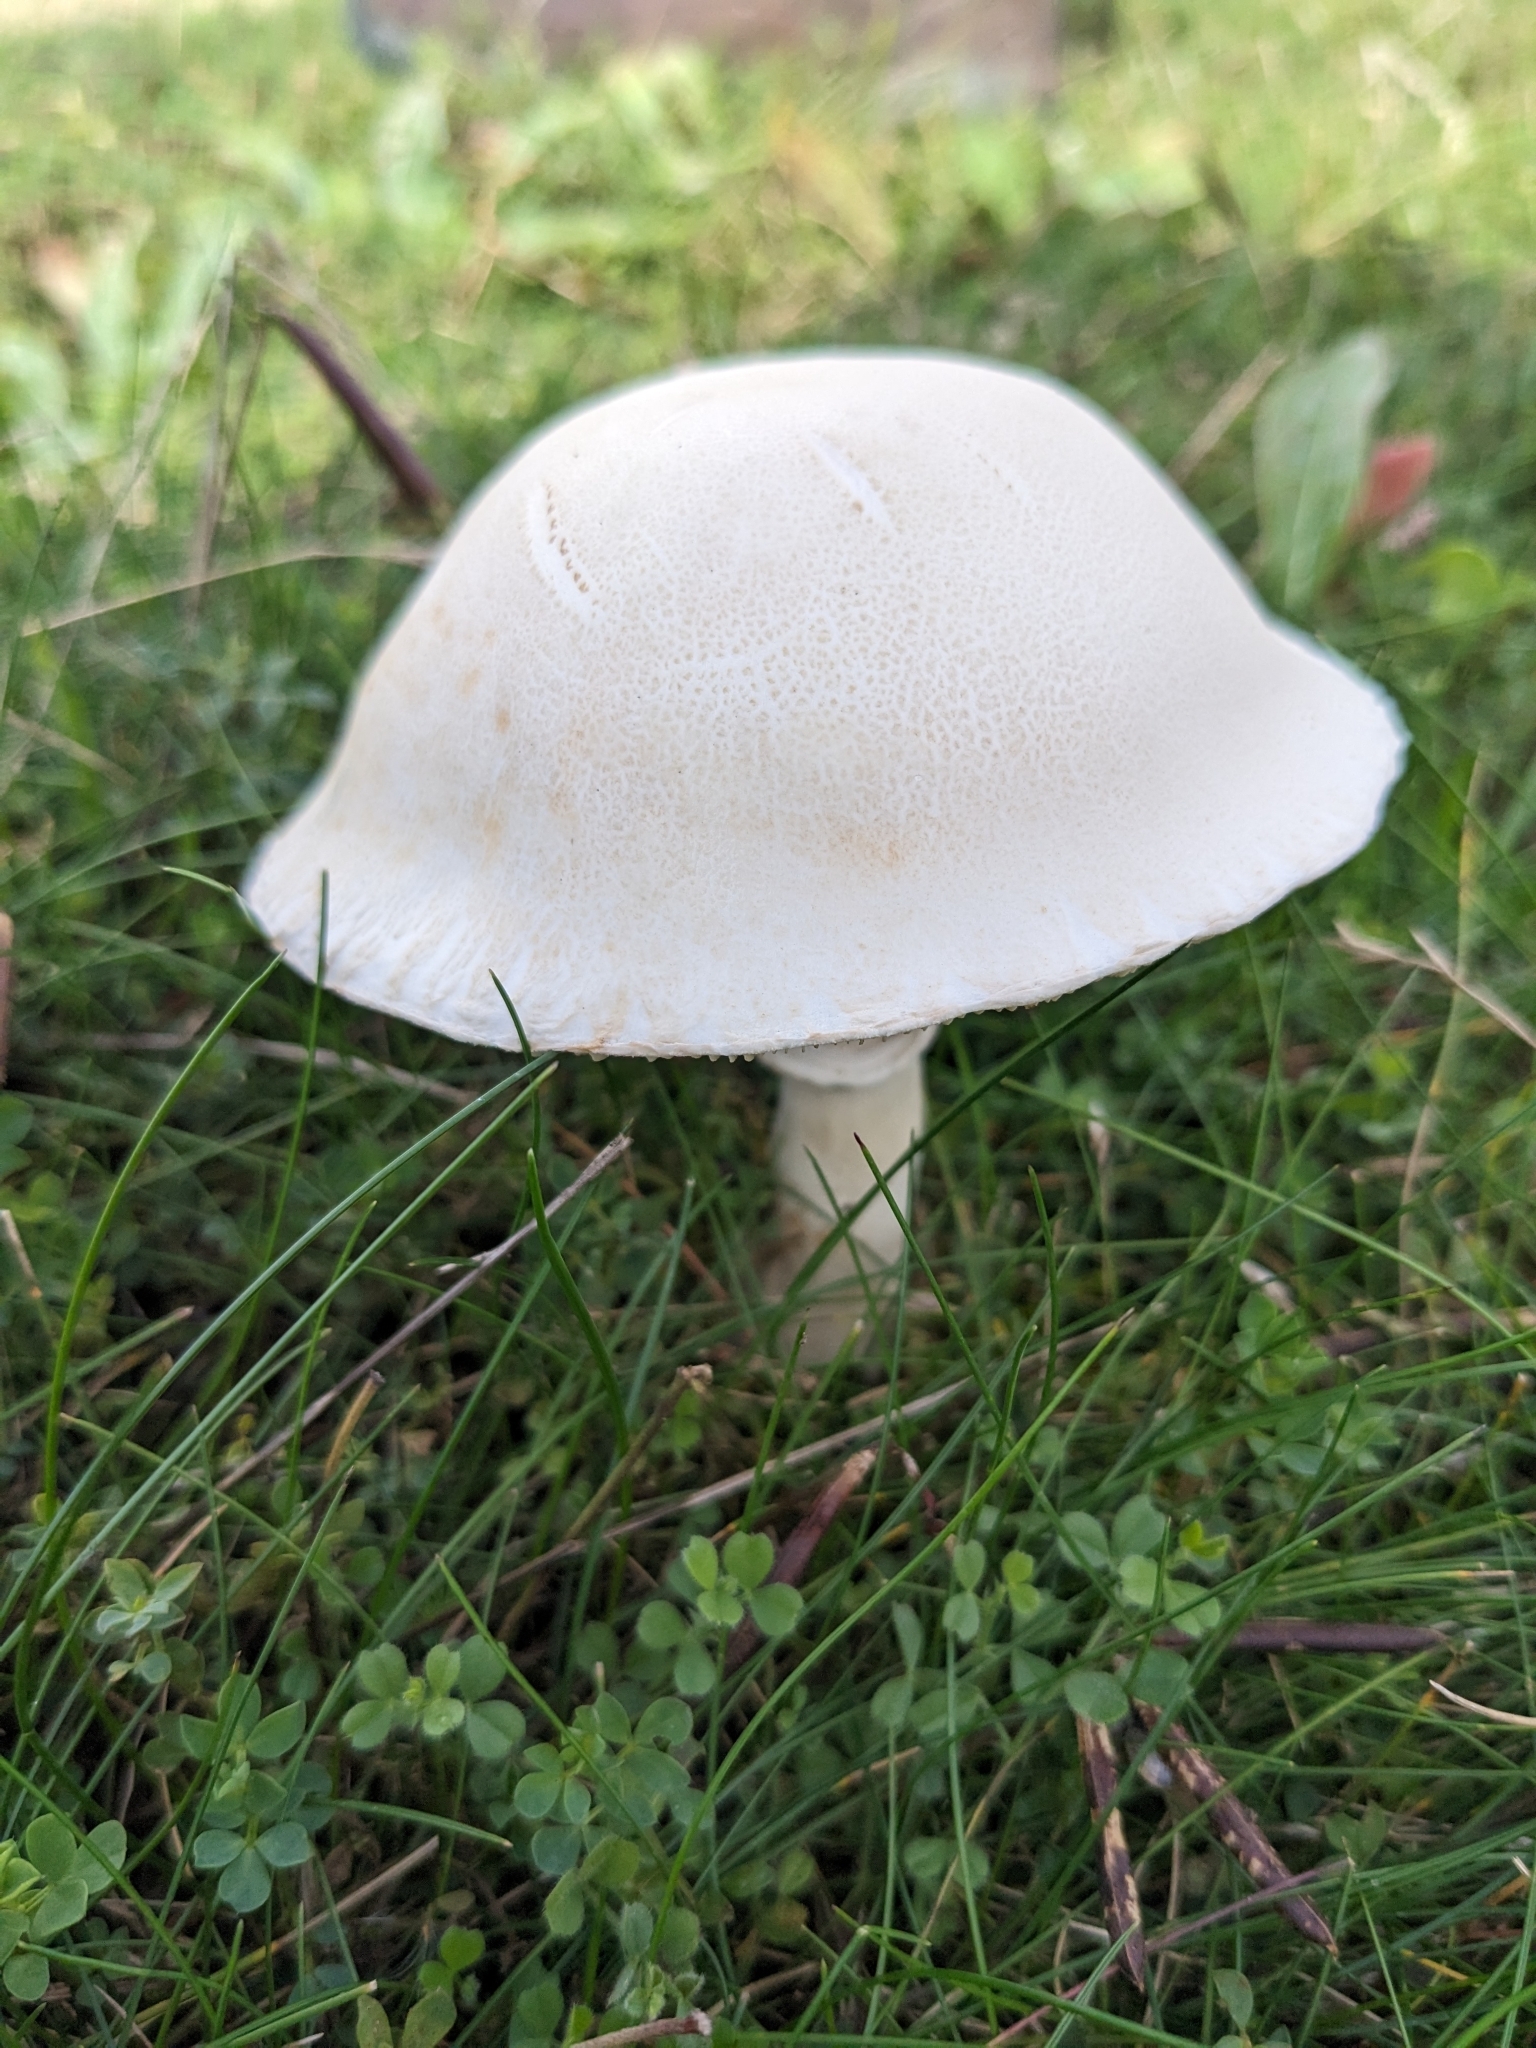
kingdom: Fungi
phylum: Basidiomycota
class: Agaricomycetes
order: Agaricales
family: Agaricaceae
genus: Leucoagaricus
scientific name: Leucoagaricus leucothites
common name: White dapperling
